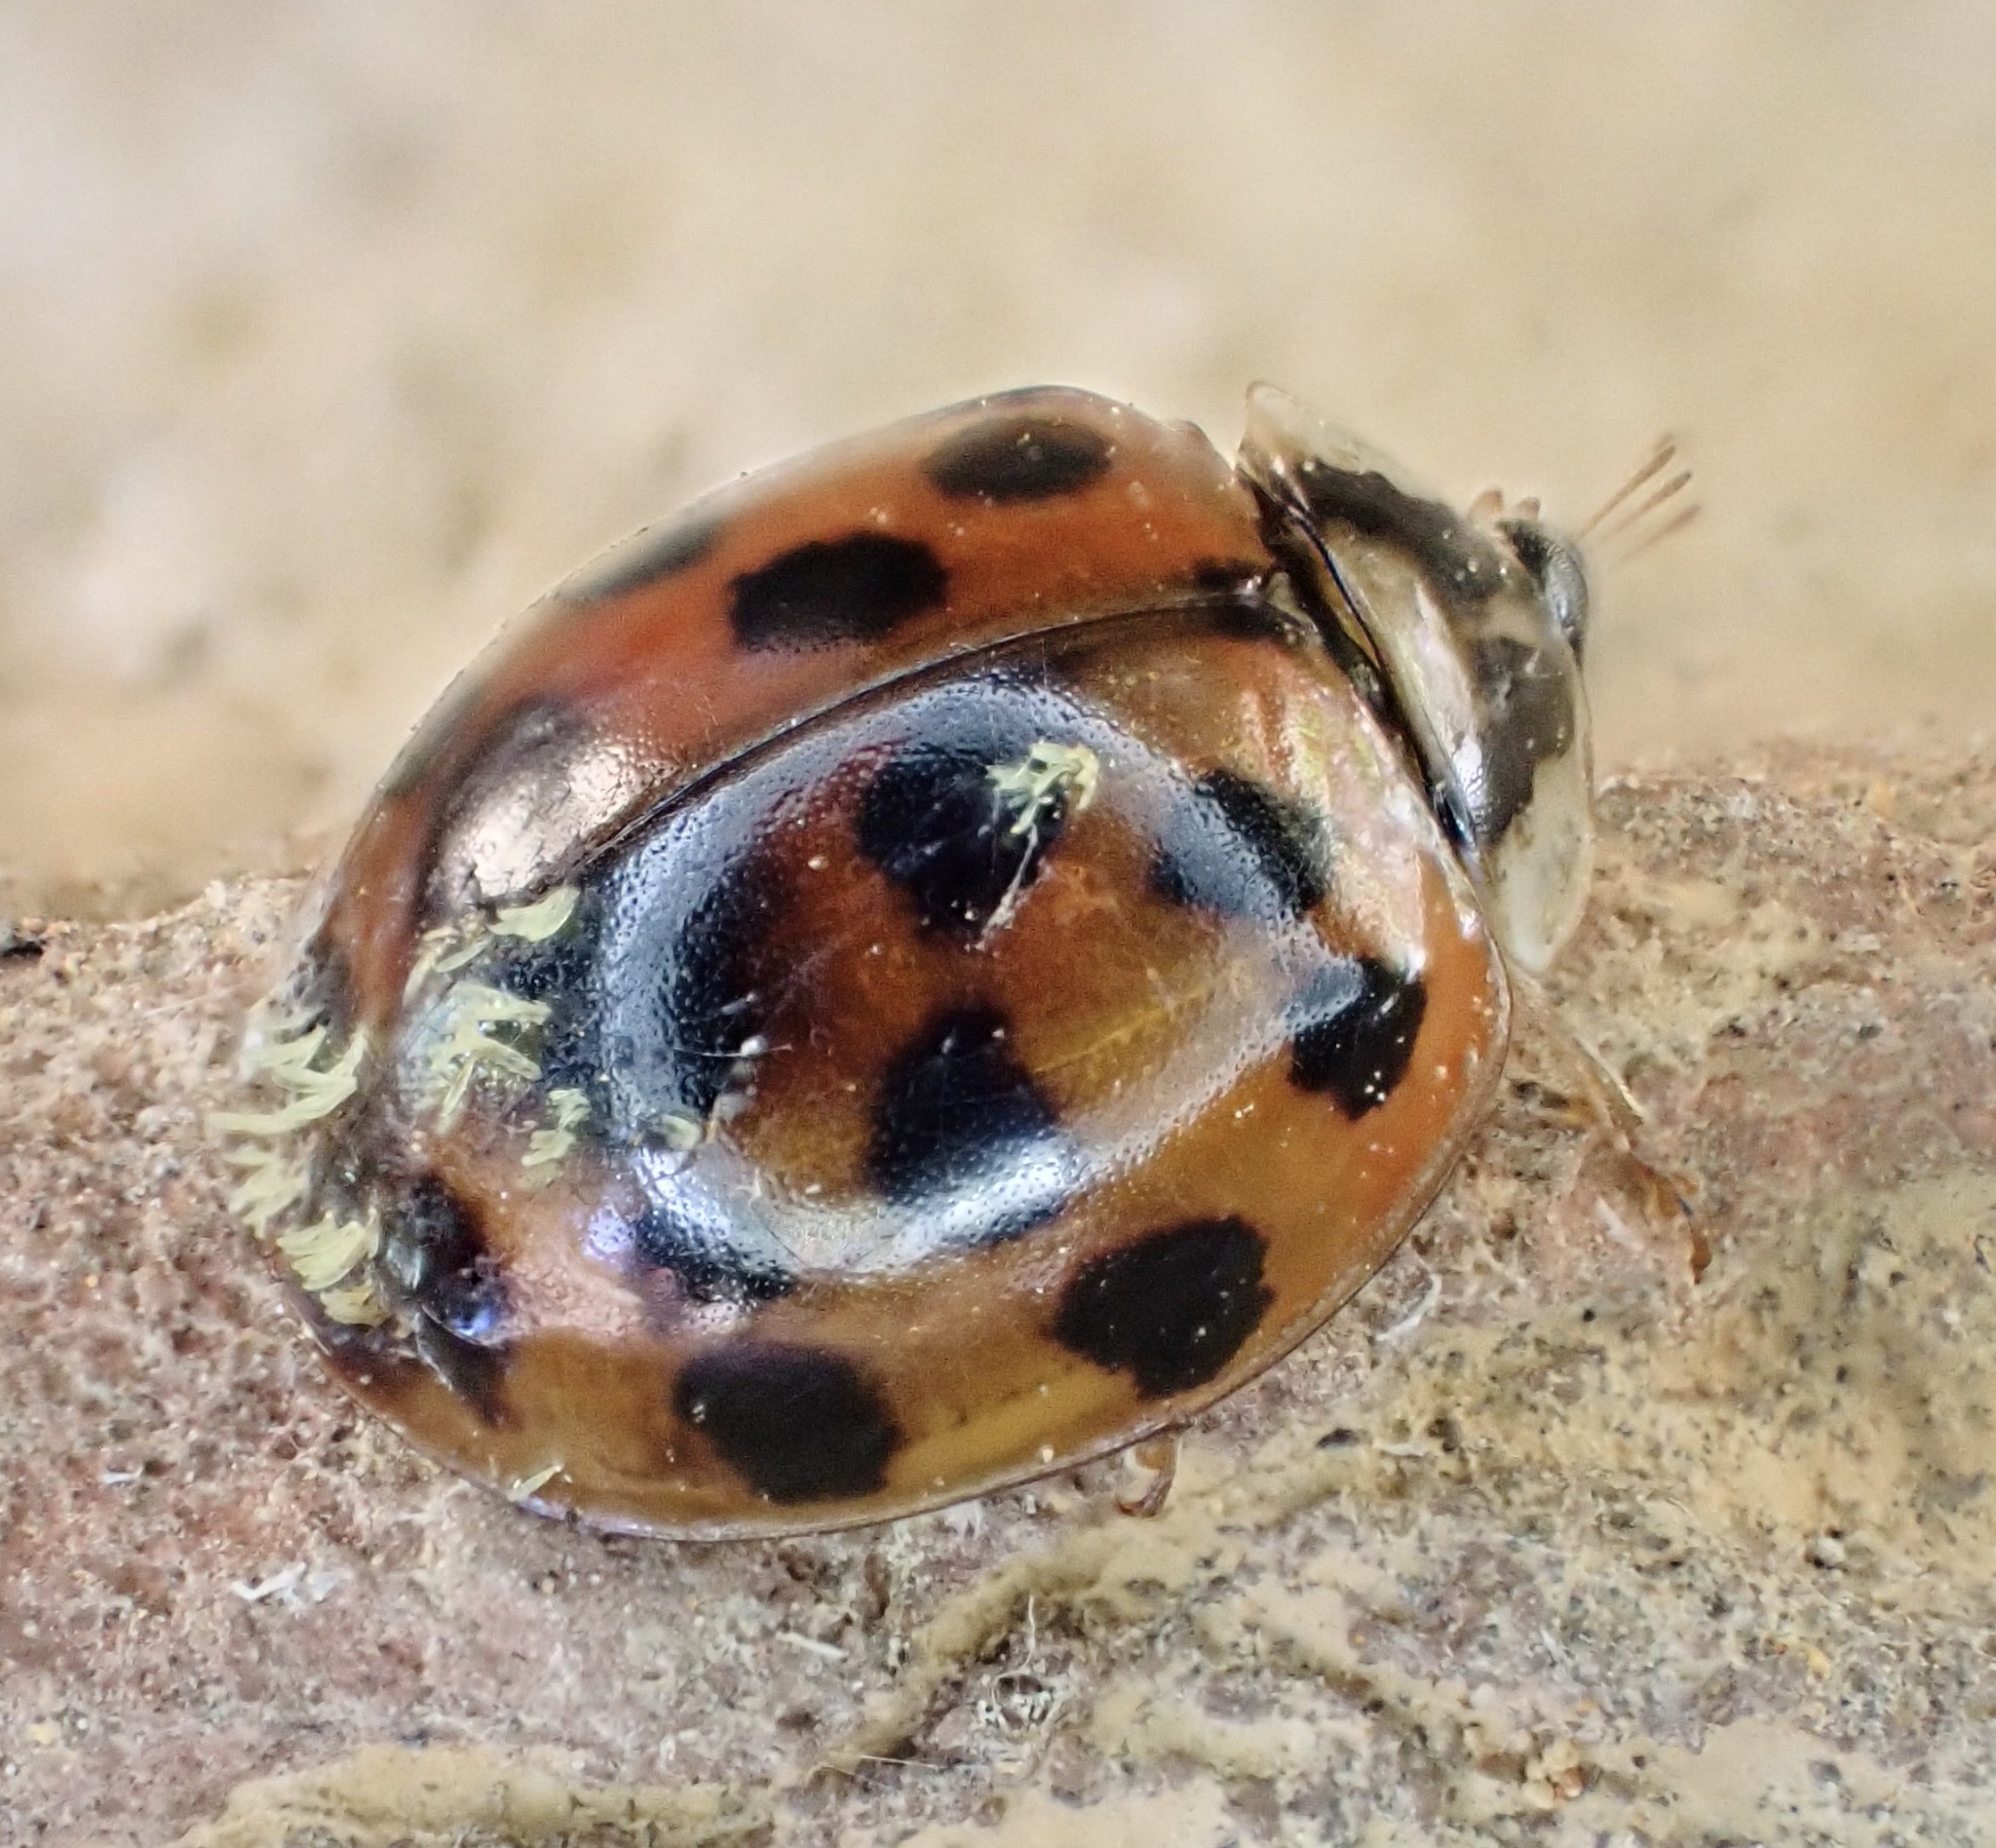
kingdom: Animalia
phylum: Arthropoda
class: Insecta
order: Coleoptera
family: Coccinellidae
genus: Harmonia
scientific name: Harmonia axyridis
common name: Harlequin ladybird
